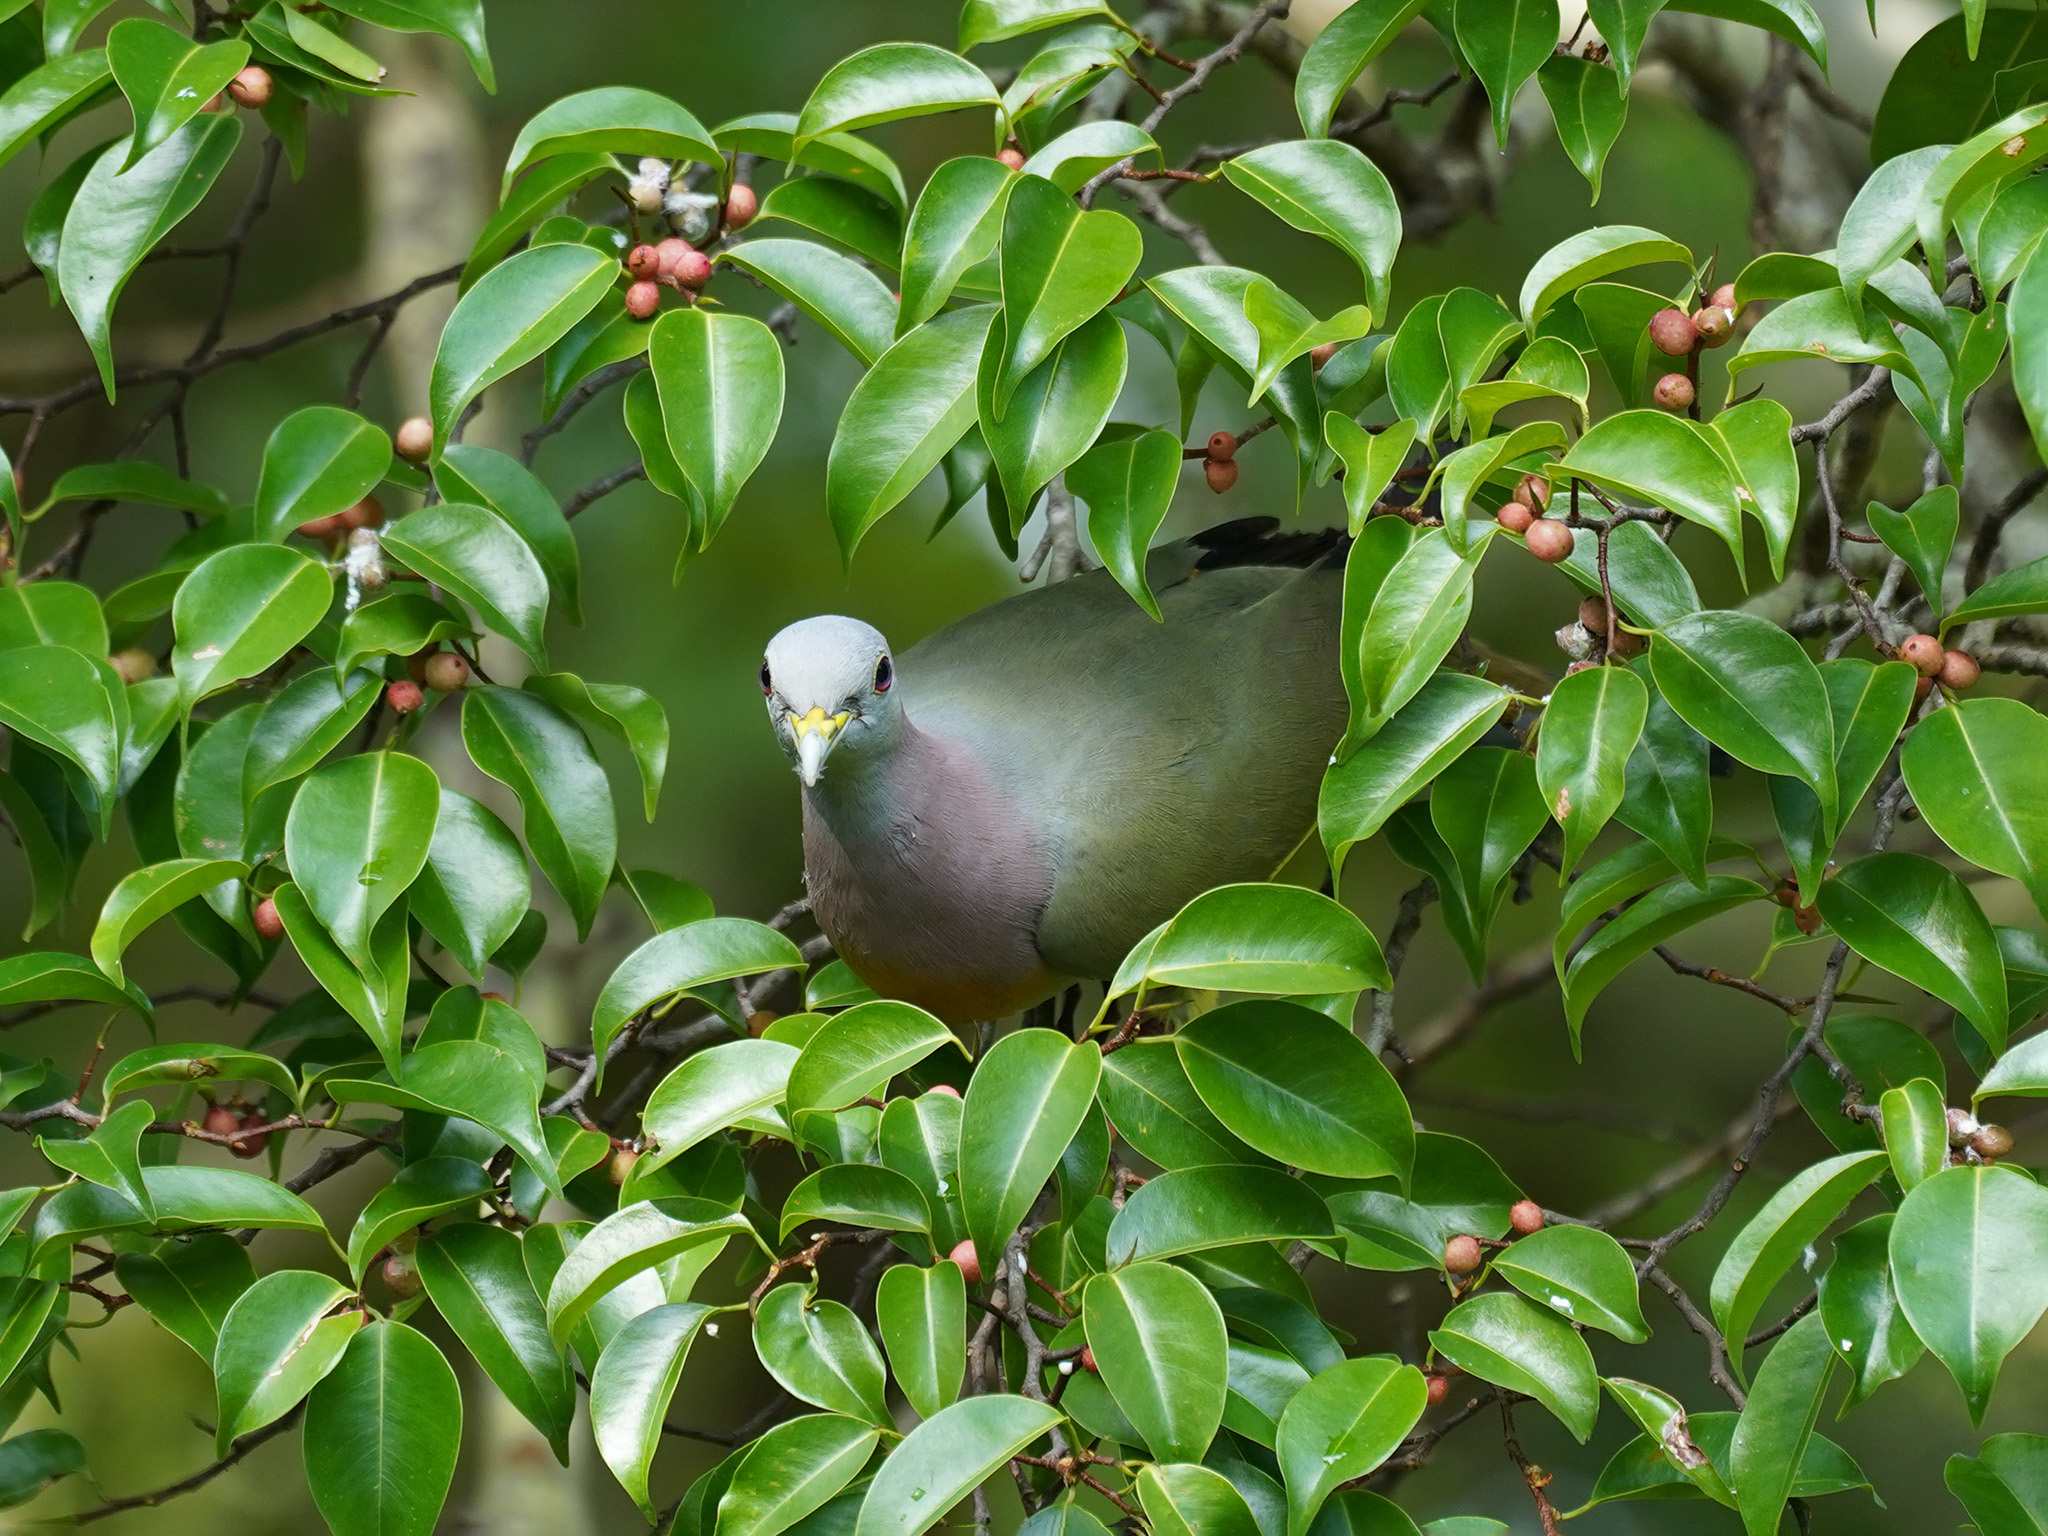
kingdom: Animalia
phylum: Chordata
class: Aves
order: Columbiformes
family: Columbidae
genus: Treron
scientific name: Treron vernans
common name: Pink-necked green pigeon
